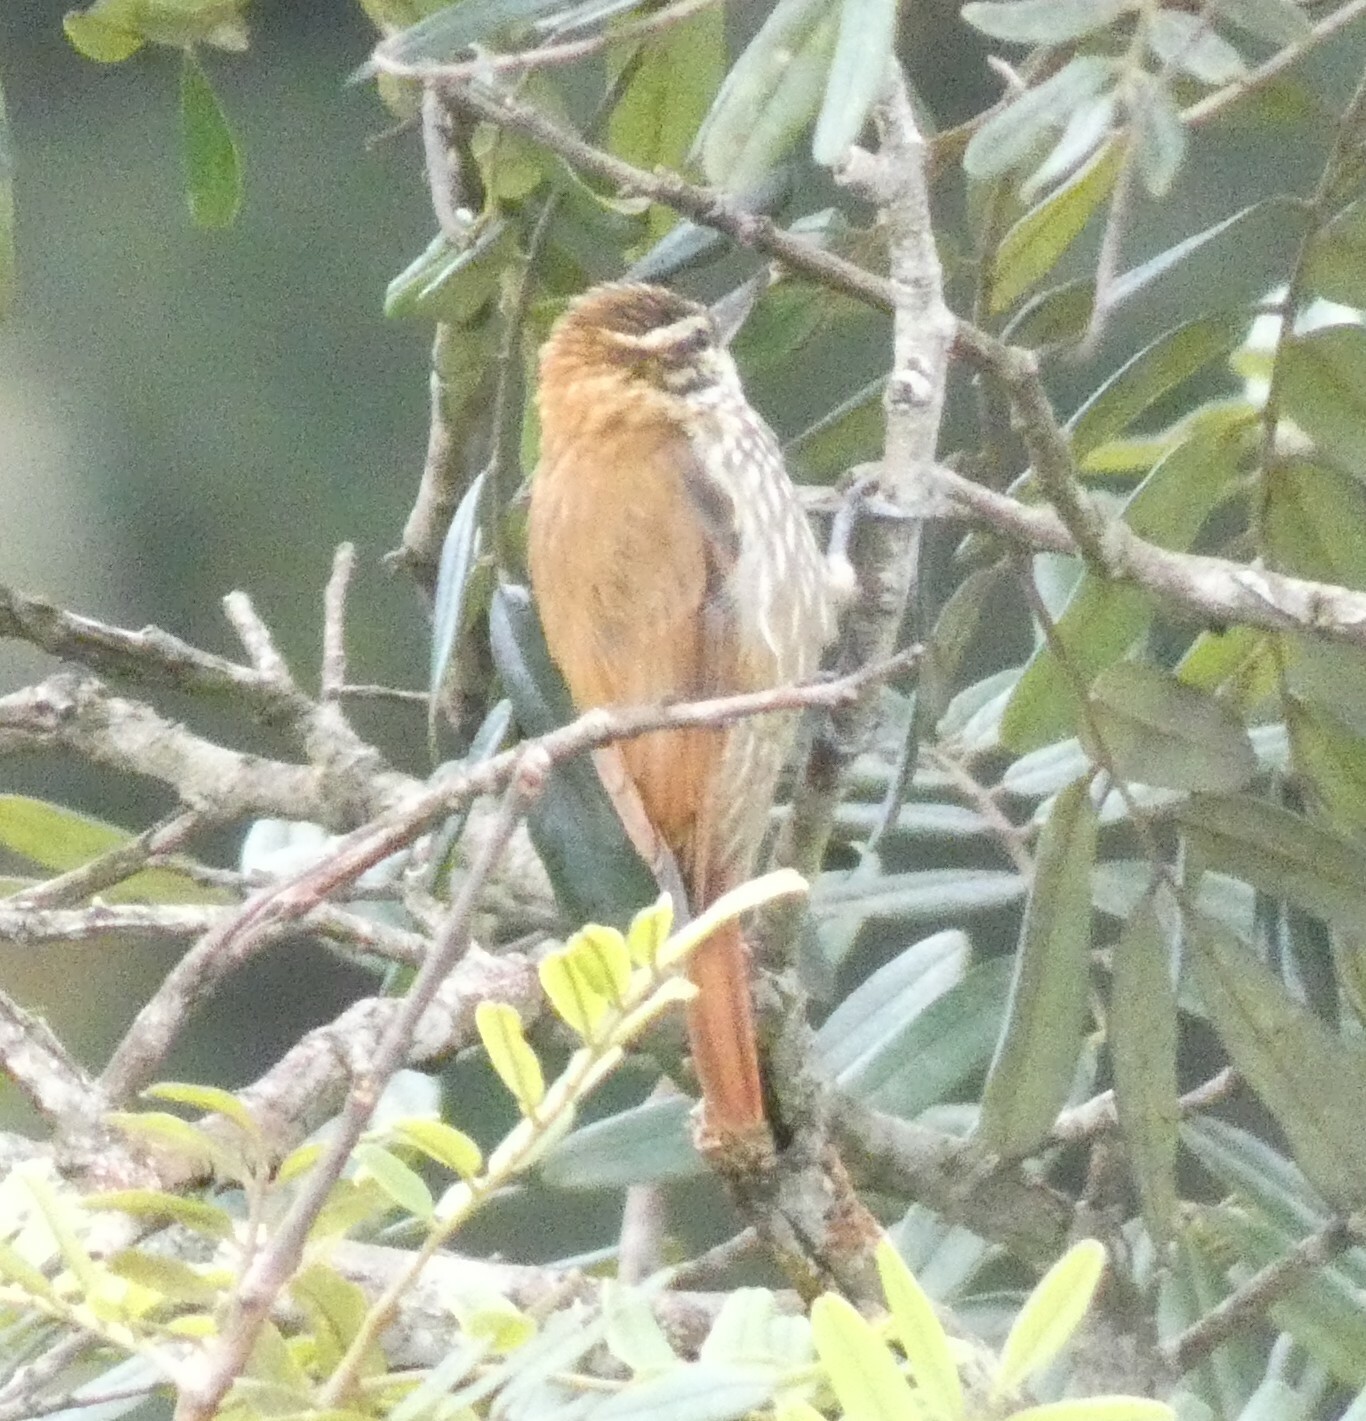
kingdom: Animalia
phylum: Chordata
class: Aves
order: Passeriformes
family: Furnariidae
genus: Xenops
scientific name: Xenops rutilans
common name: Streaked xenops
